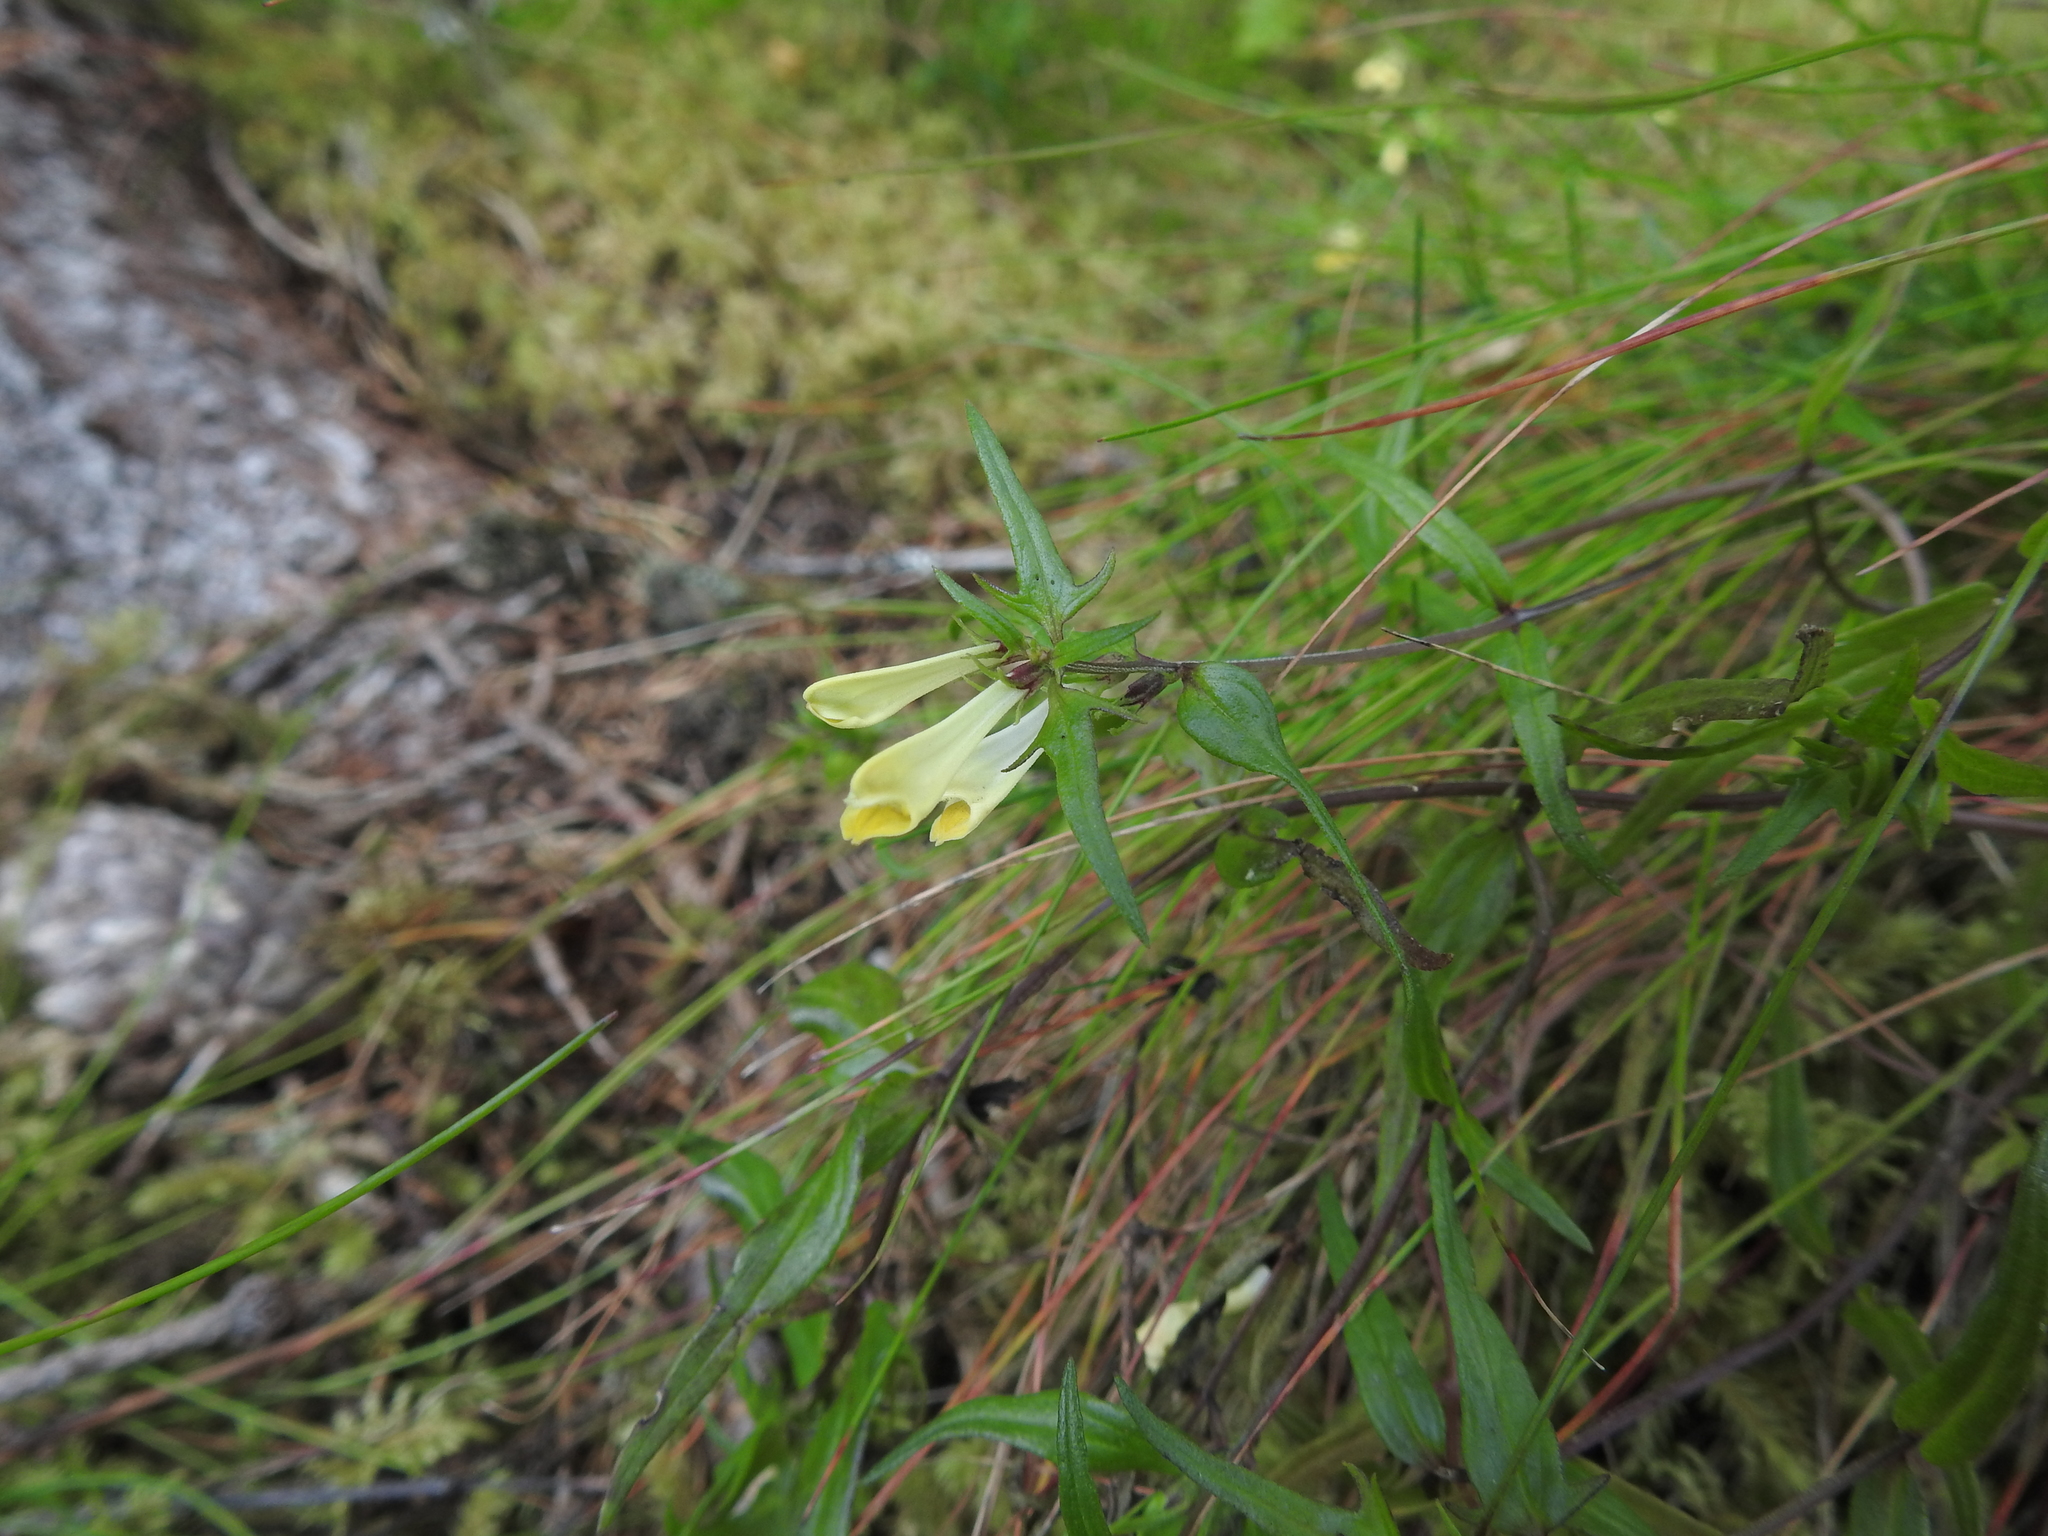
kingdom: Plantae
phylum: Tracheophyta
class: Magnoliopsida
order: Lamiales
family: Orobanchaceae
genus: Melampyrum
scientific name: Melampyrum pratense
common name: Common cow-wheat
